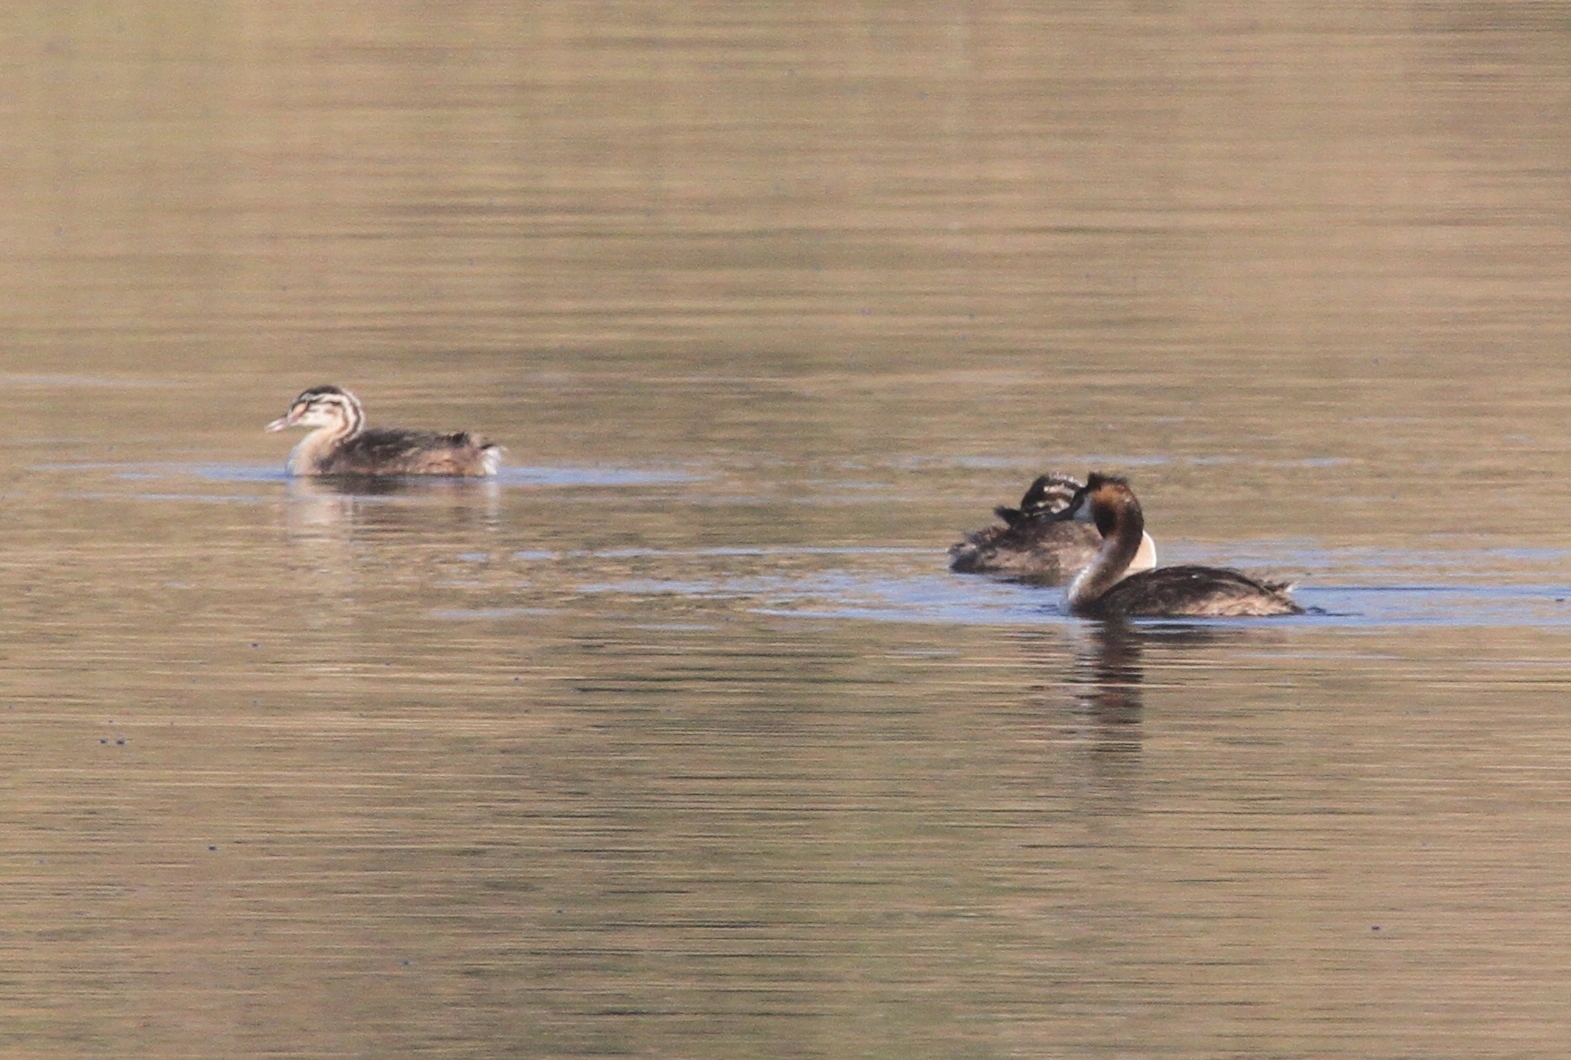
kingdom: Animalia
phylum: Chordata
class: Aves
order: Podicipediformes
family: Podicipedidae
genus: Podiceps
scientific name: Podiceps cristatus
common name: Great crested grebe
